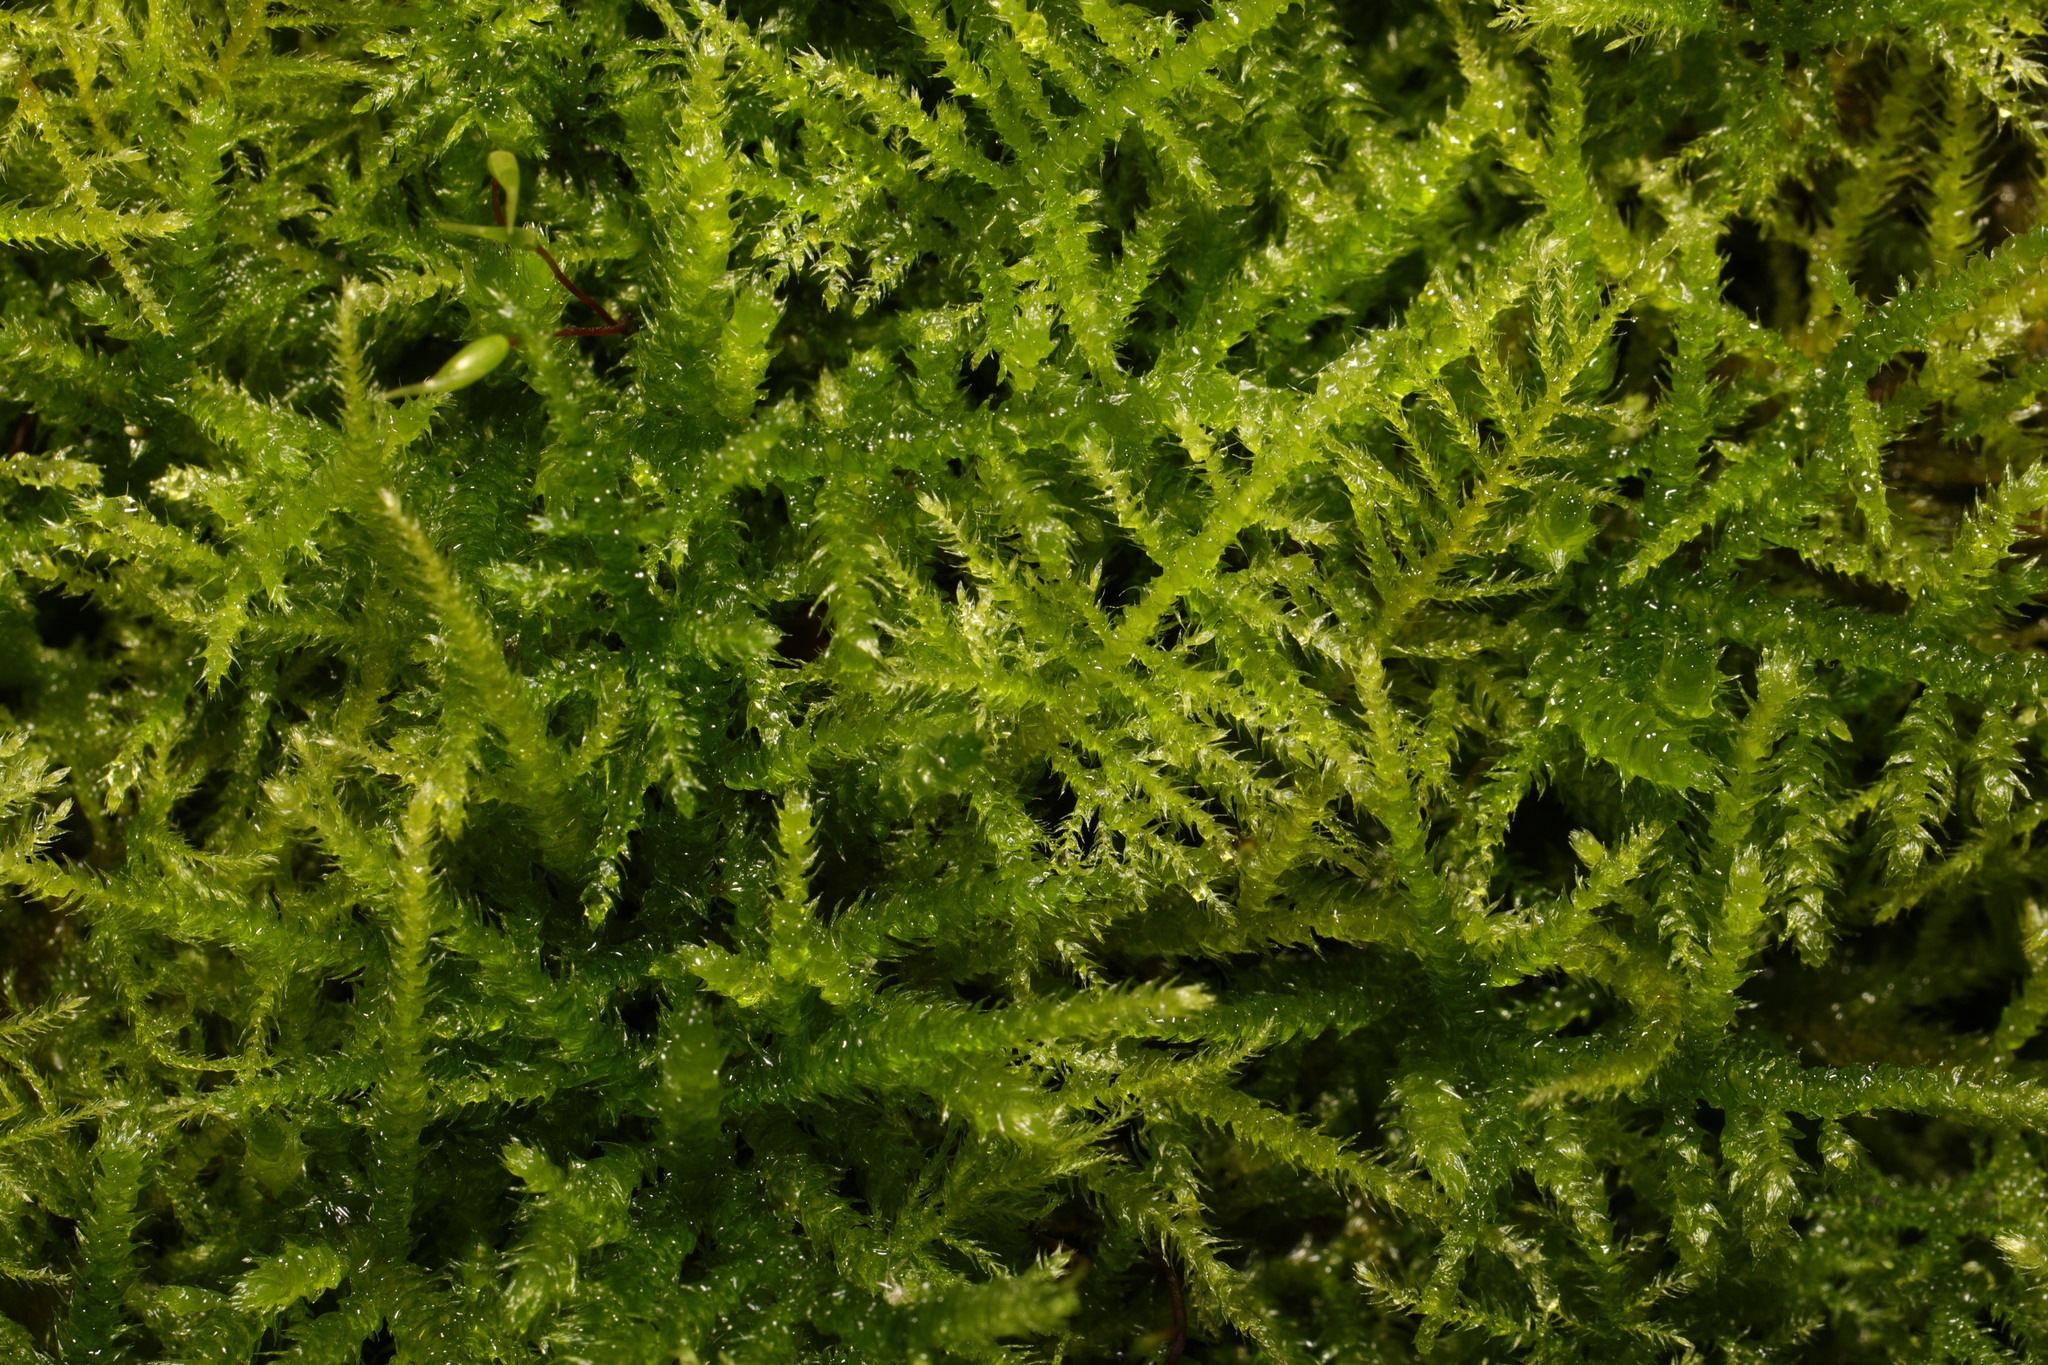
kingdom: Plantae
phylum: Bryophyta
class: Bryopsida
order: Hypnales
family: Brachytheciaceae
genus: Kindbergia
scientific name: Kindbergia praelonga
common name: Slender beaked moss
